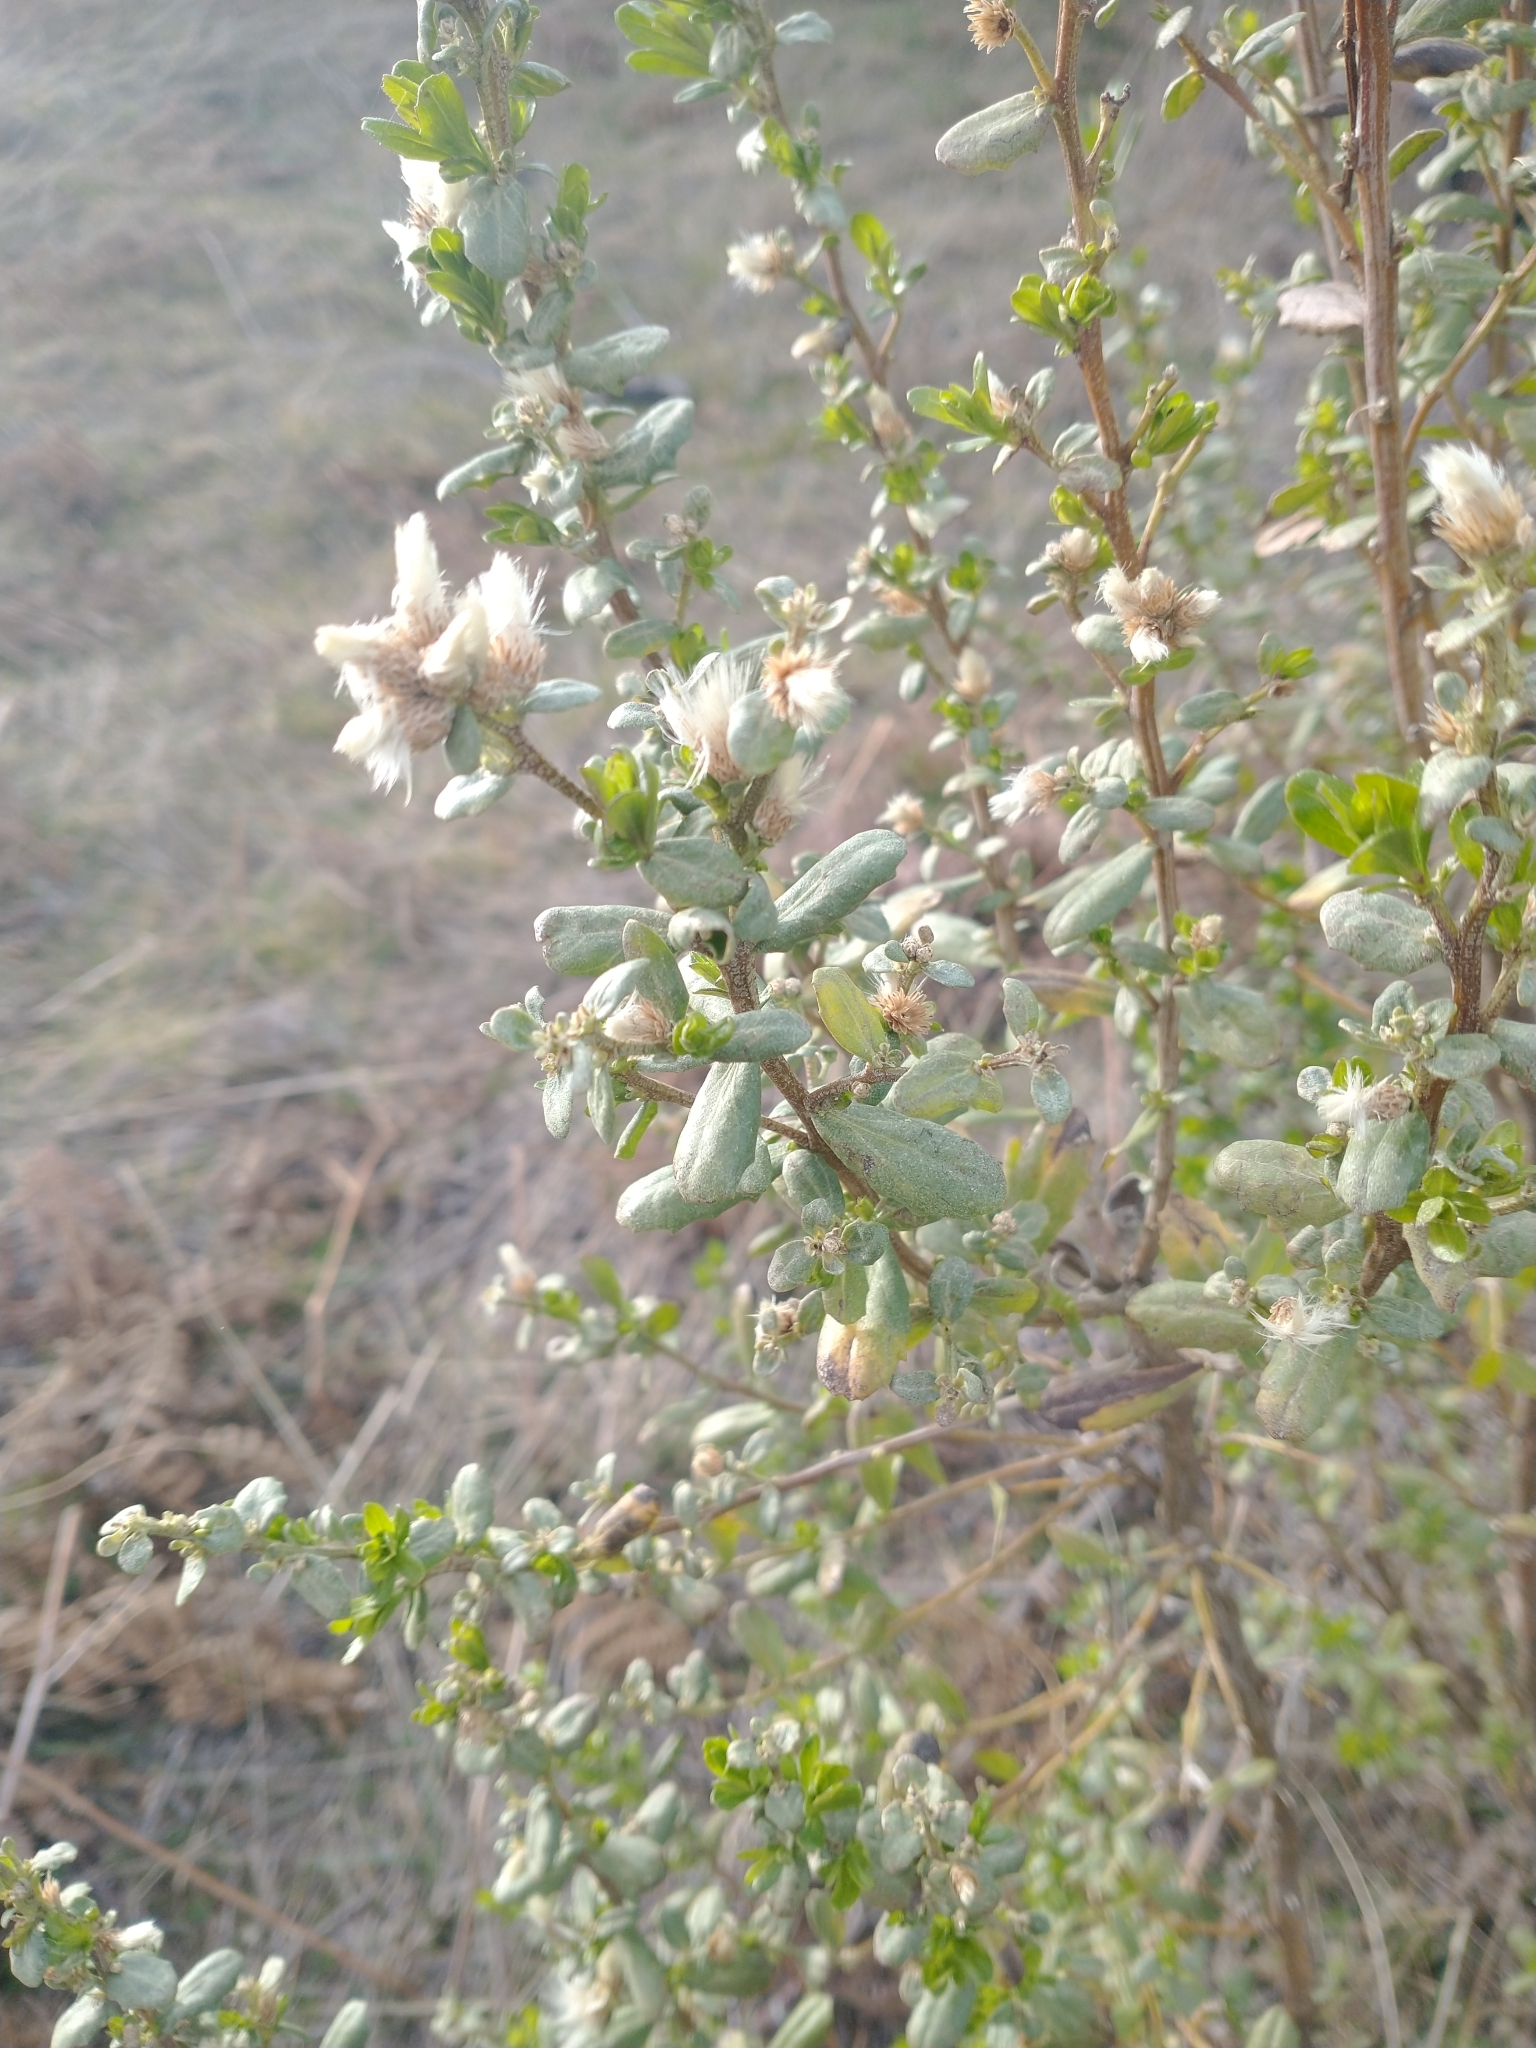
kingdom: Plantae
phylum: Tracheophyta
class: Magnoliopsida
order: Asterales
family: Asteraceae
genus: Baccharis
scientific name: Baccharis pilularis
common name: Coyotebrush
